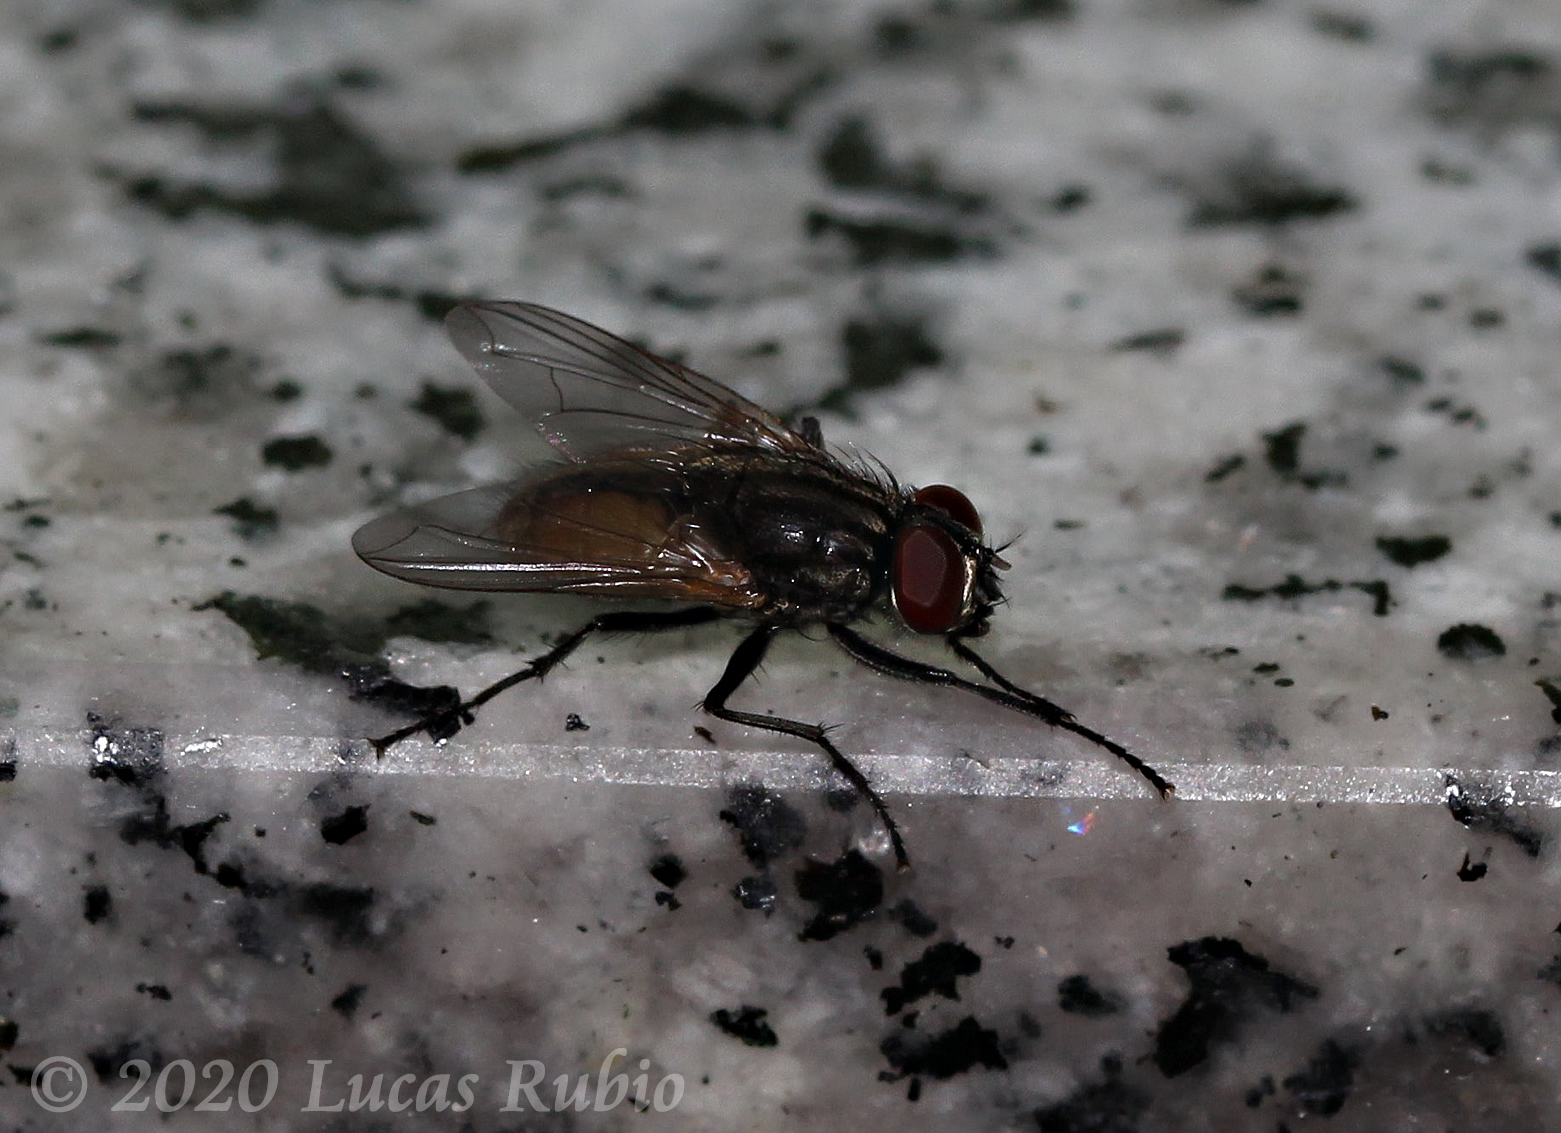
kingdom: Animalia
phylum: Arthropoda
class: Insecta
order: Diptera
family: Muscidae
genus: Musca
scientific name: Musca domestica
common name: House fly
